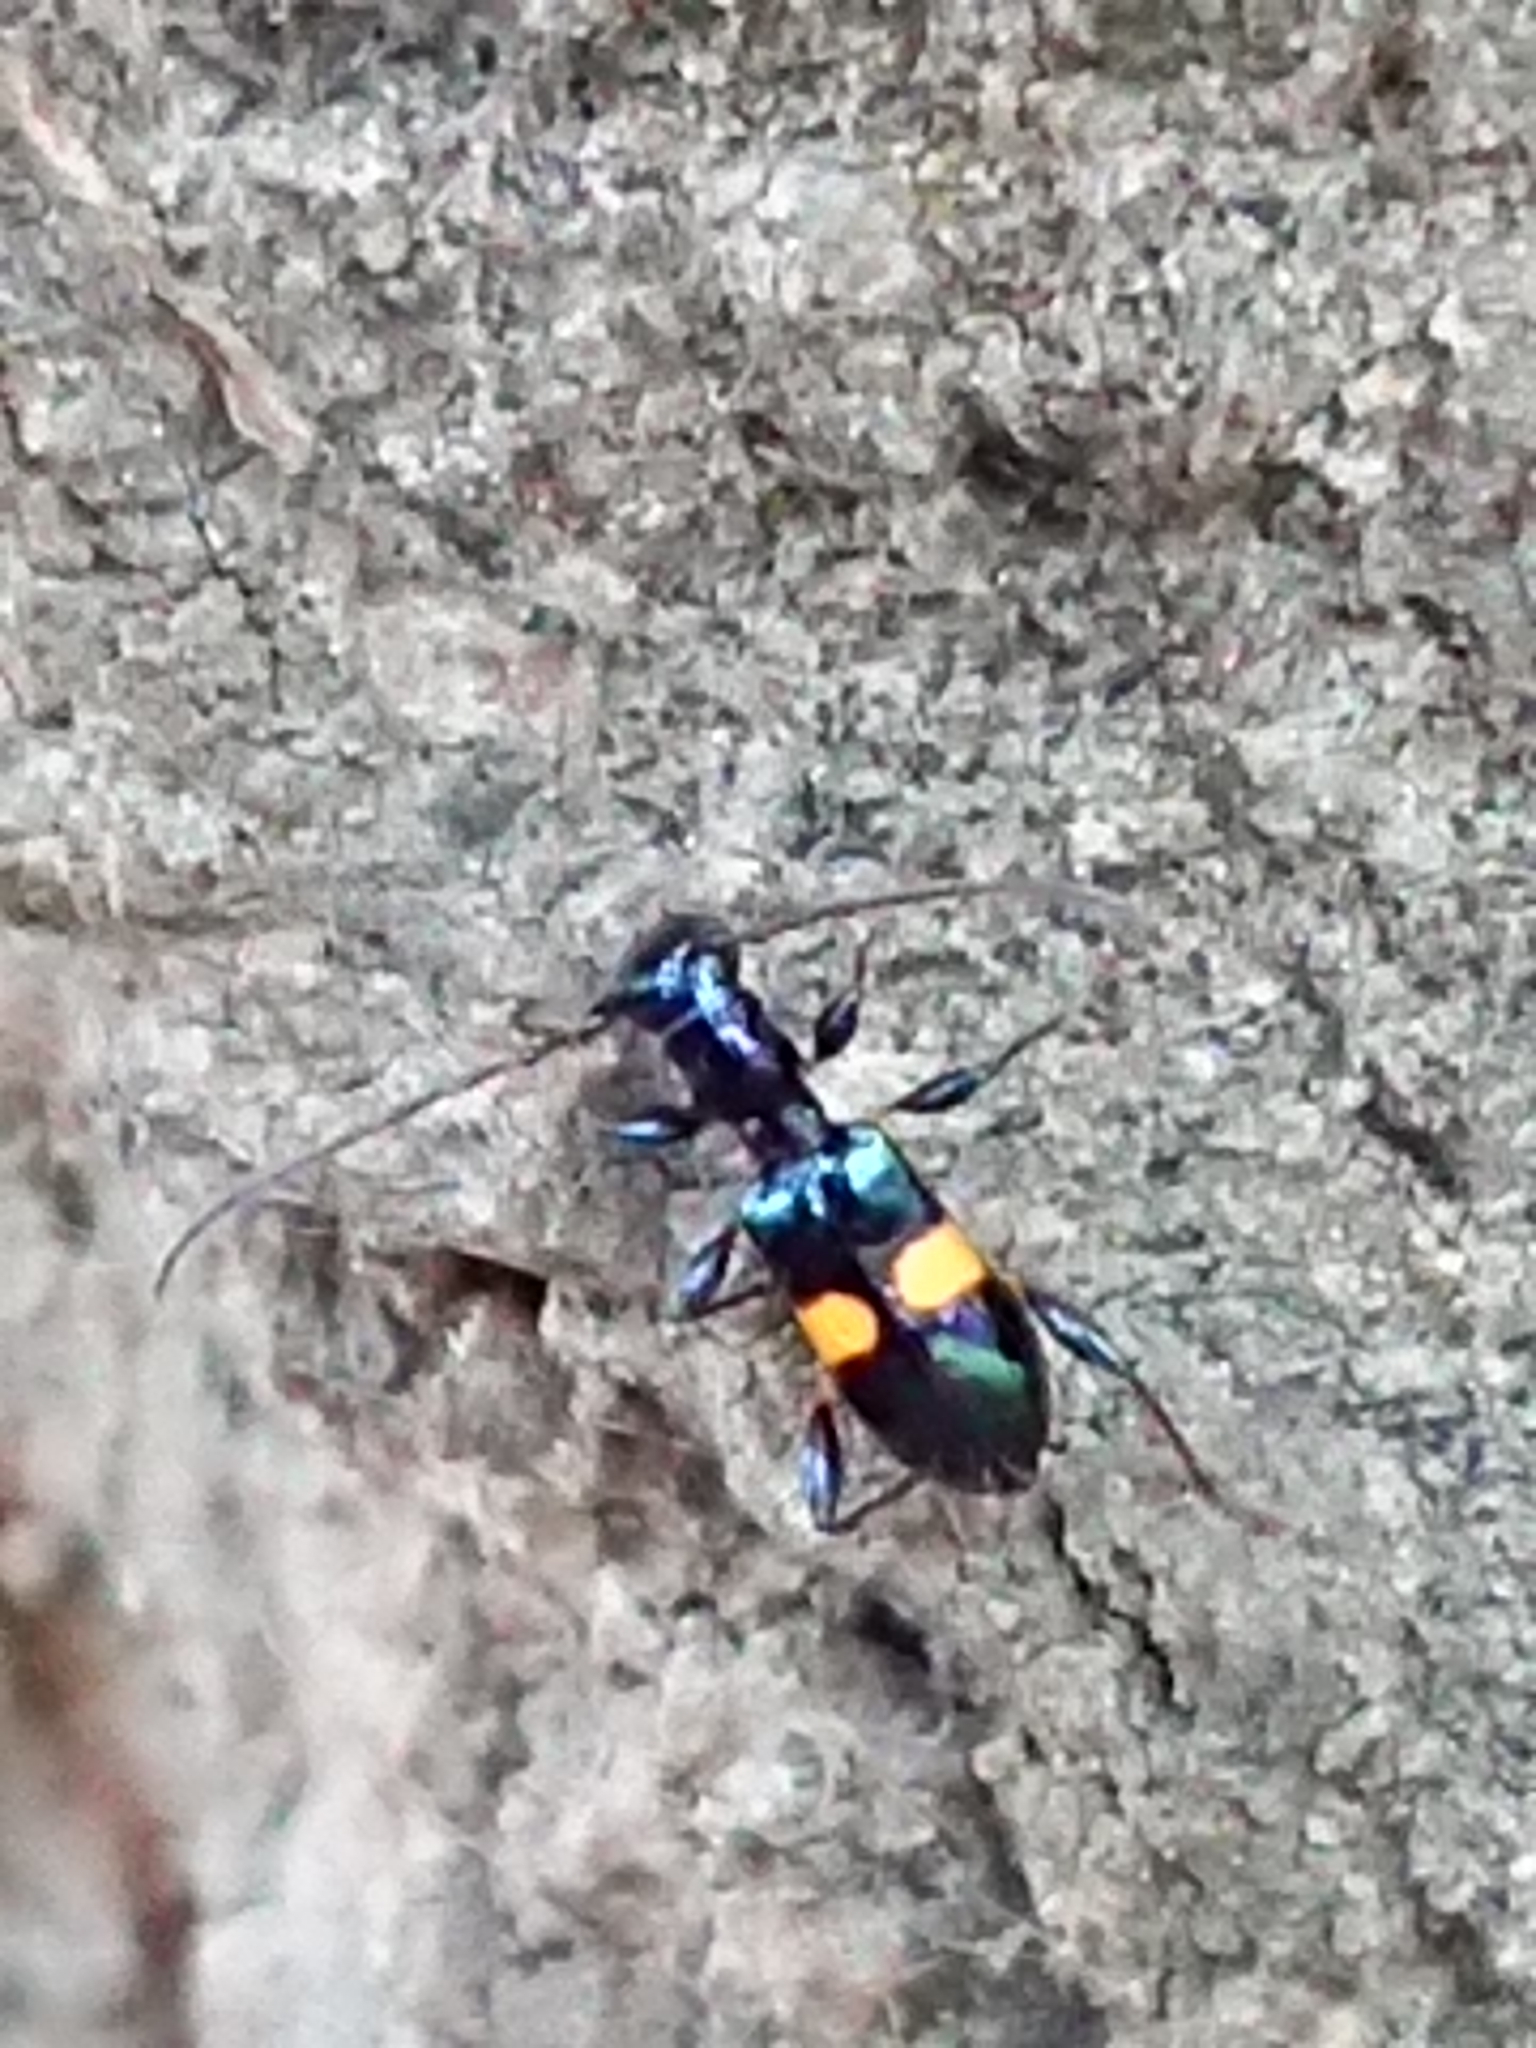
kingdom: Animalia
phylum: Arthropoda
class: Insecta
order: Coleoptera
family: Cerambycidae
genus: Zorion
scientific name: Zorion guttigerum
